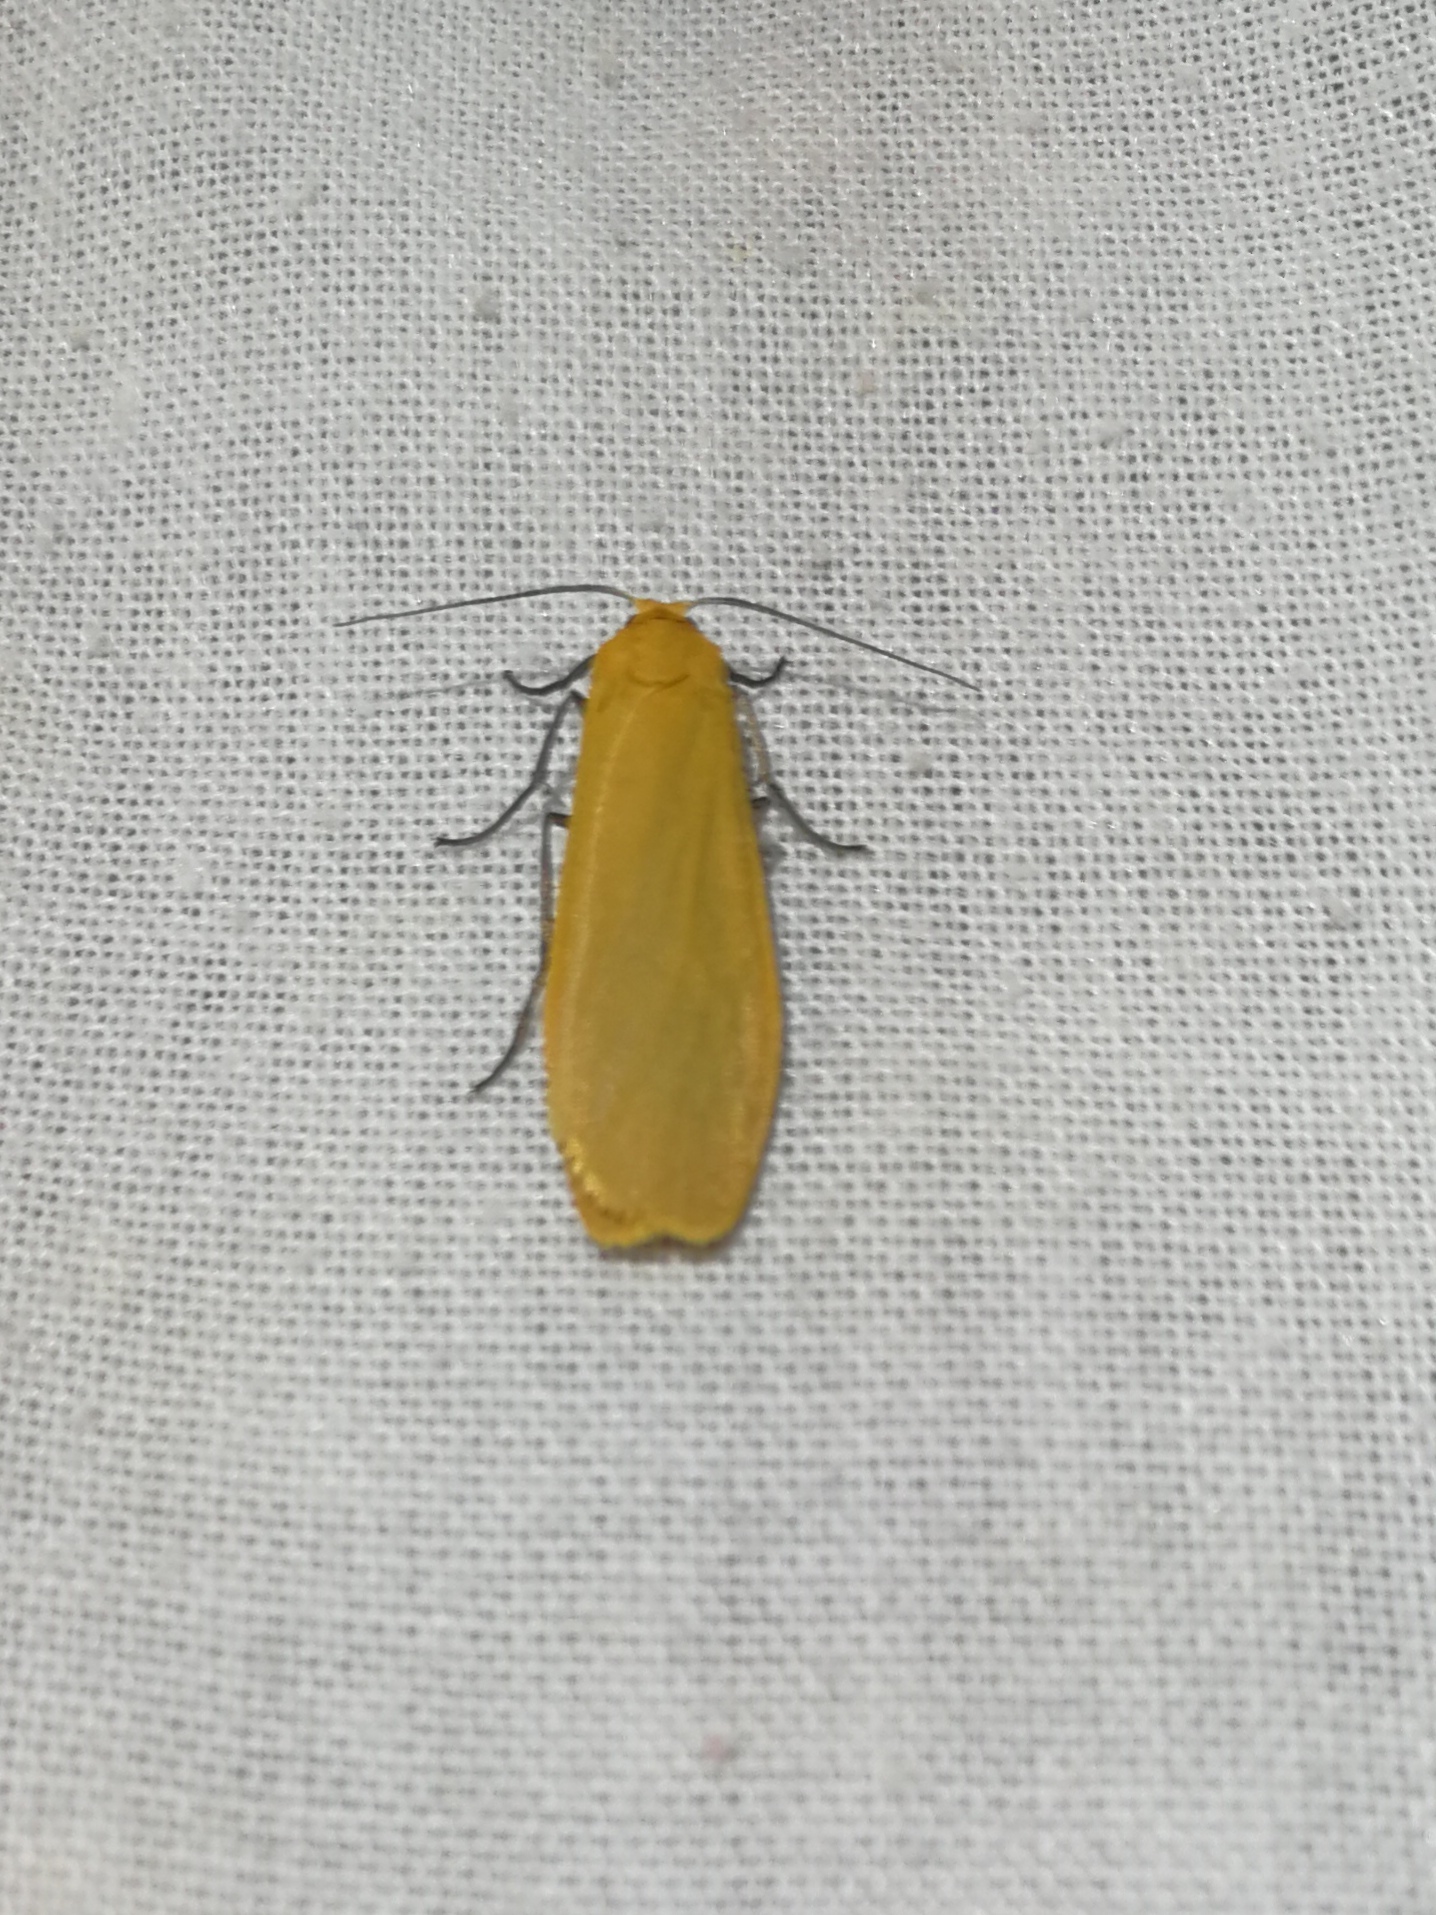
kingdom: Animalia
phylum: Arthropoda
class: Insecta
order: Lepidoptera
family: Erebidae
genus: Wittia
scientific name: Wittia sororcula
